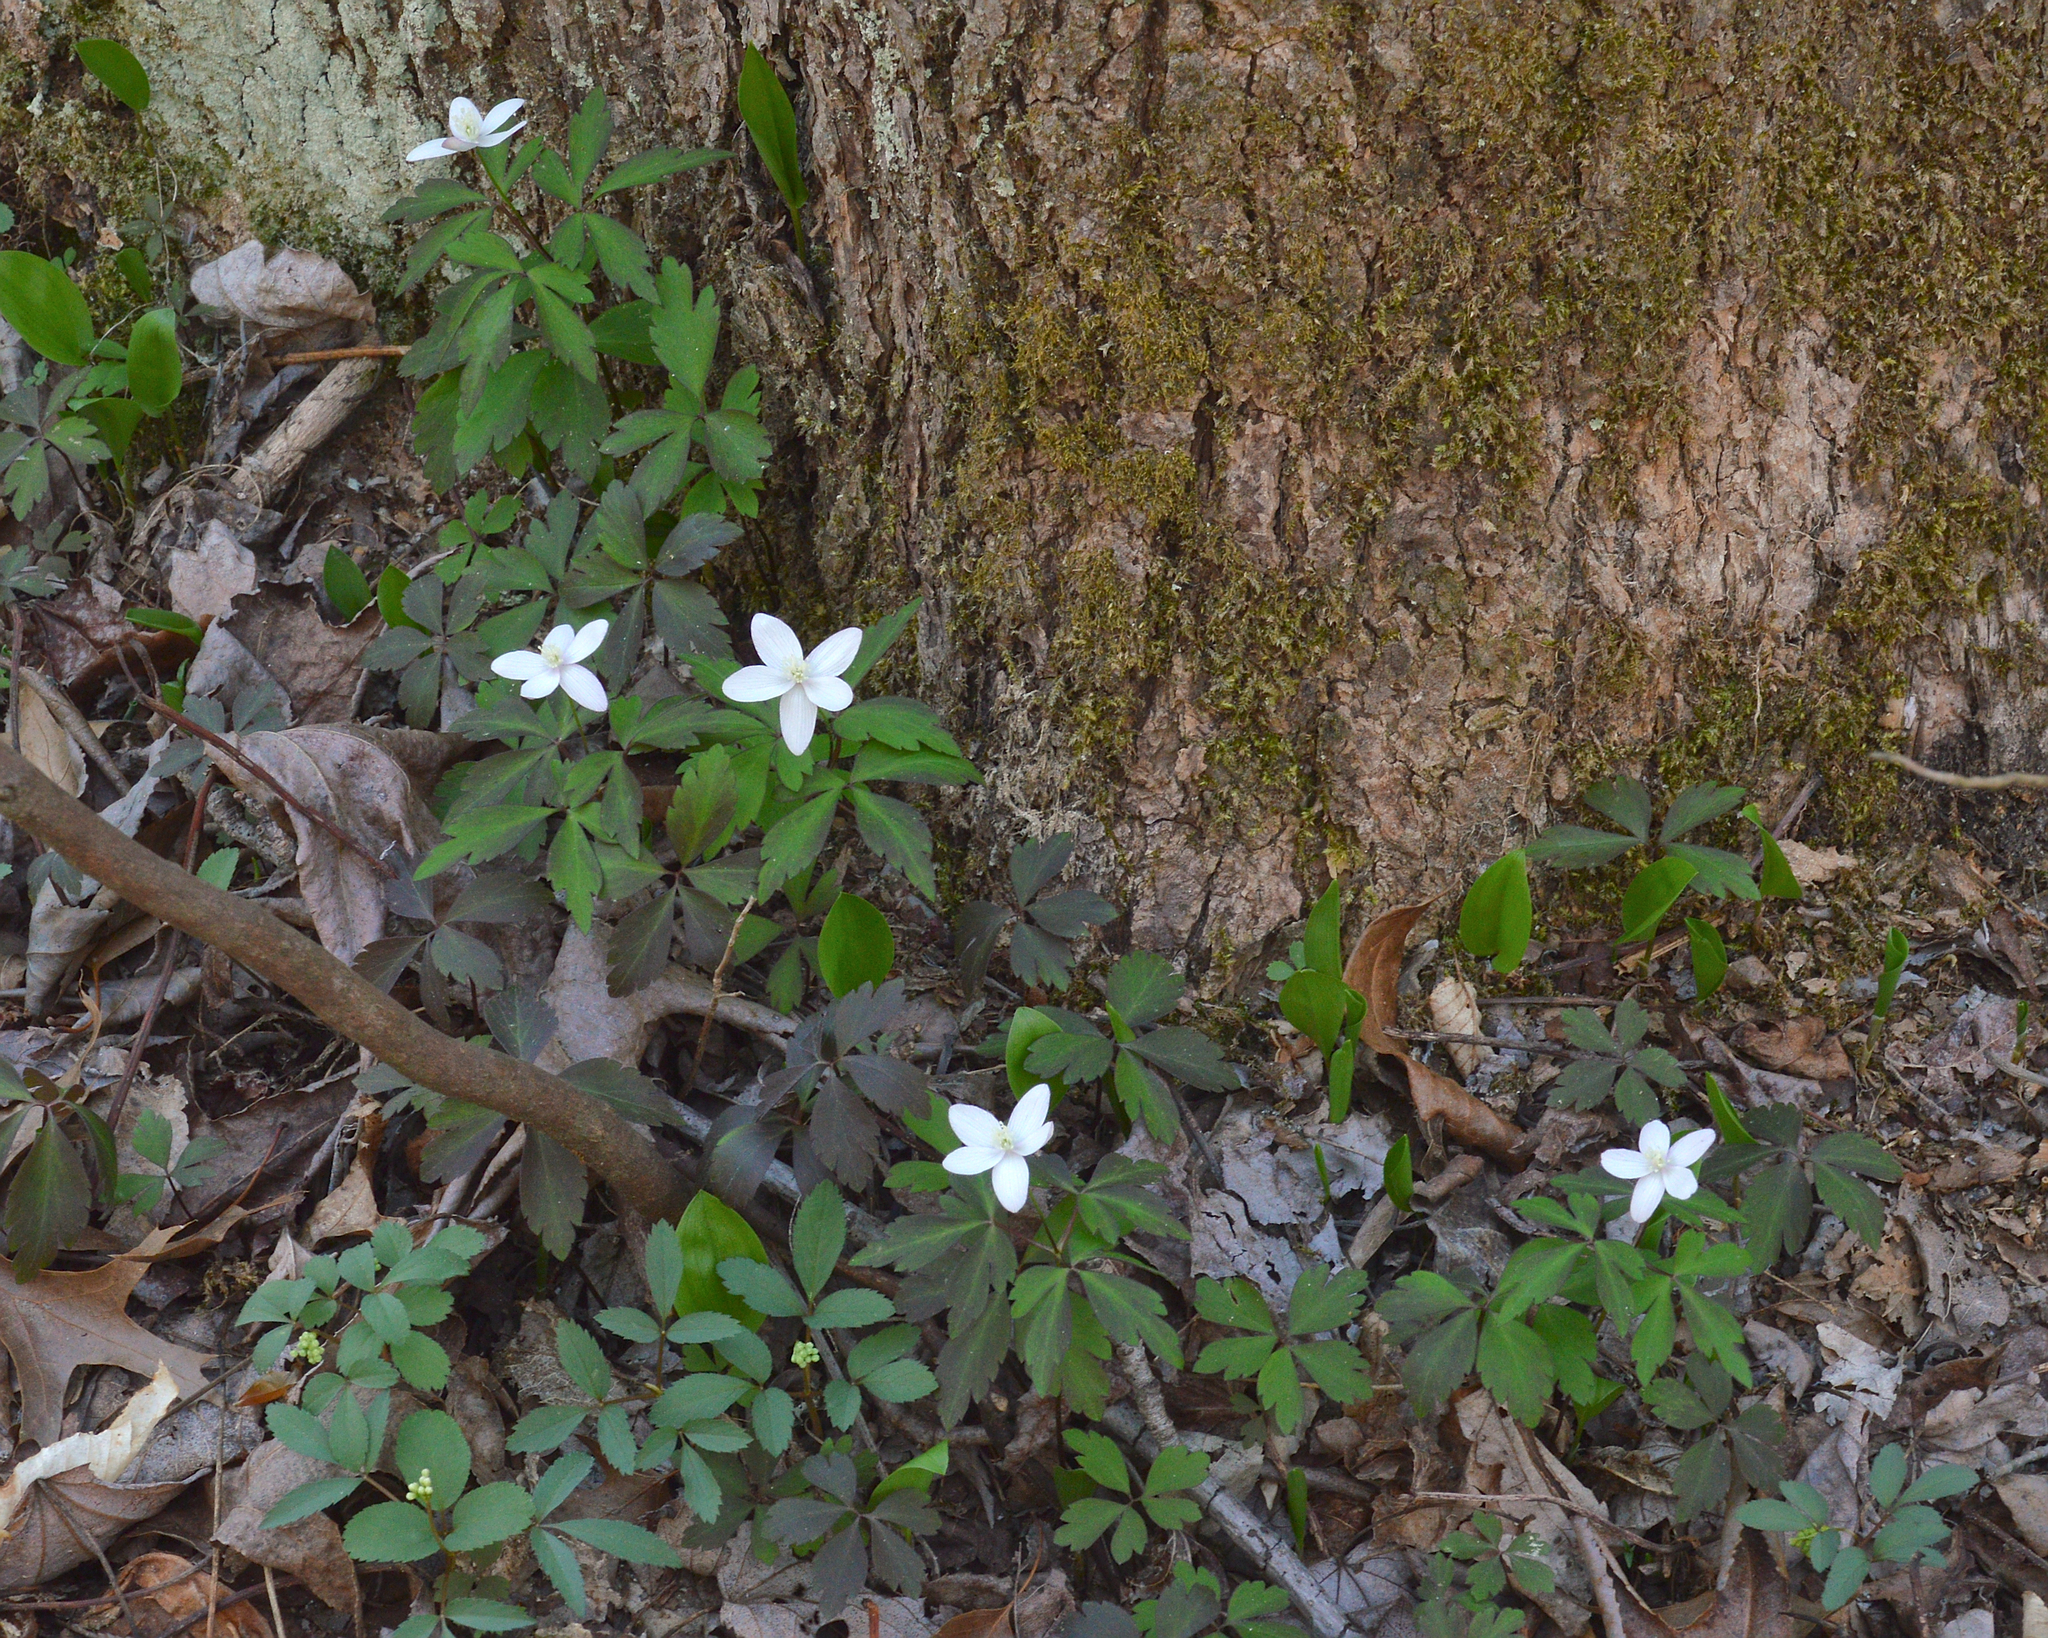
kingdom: Plantae
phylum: Tracheophyta
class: Magnoliopsida
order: Ranunculales
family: Ranunculaceae
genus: Anemone
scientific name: Anemone quinquefolia
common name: Wood anemone
